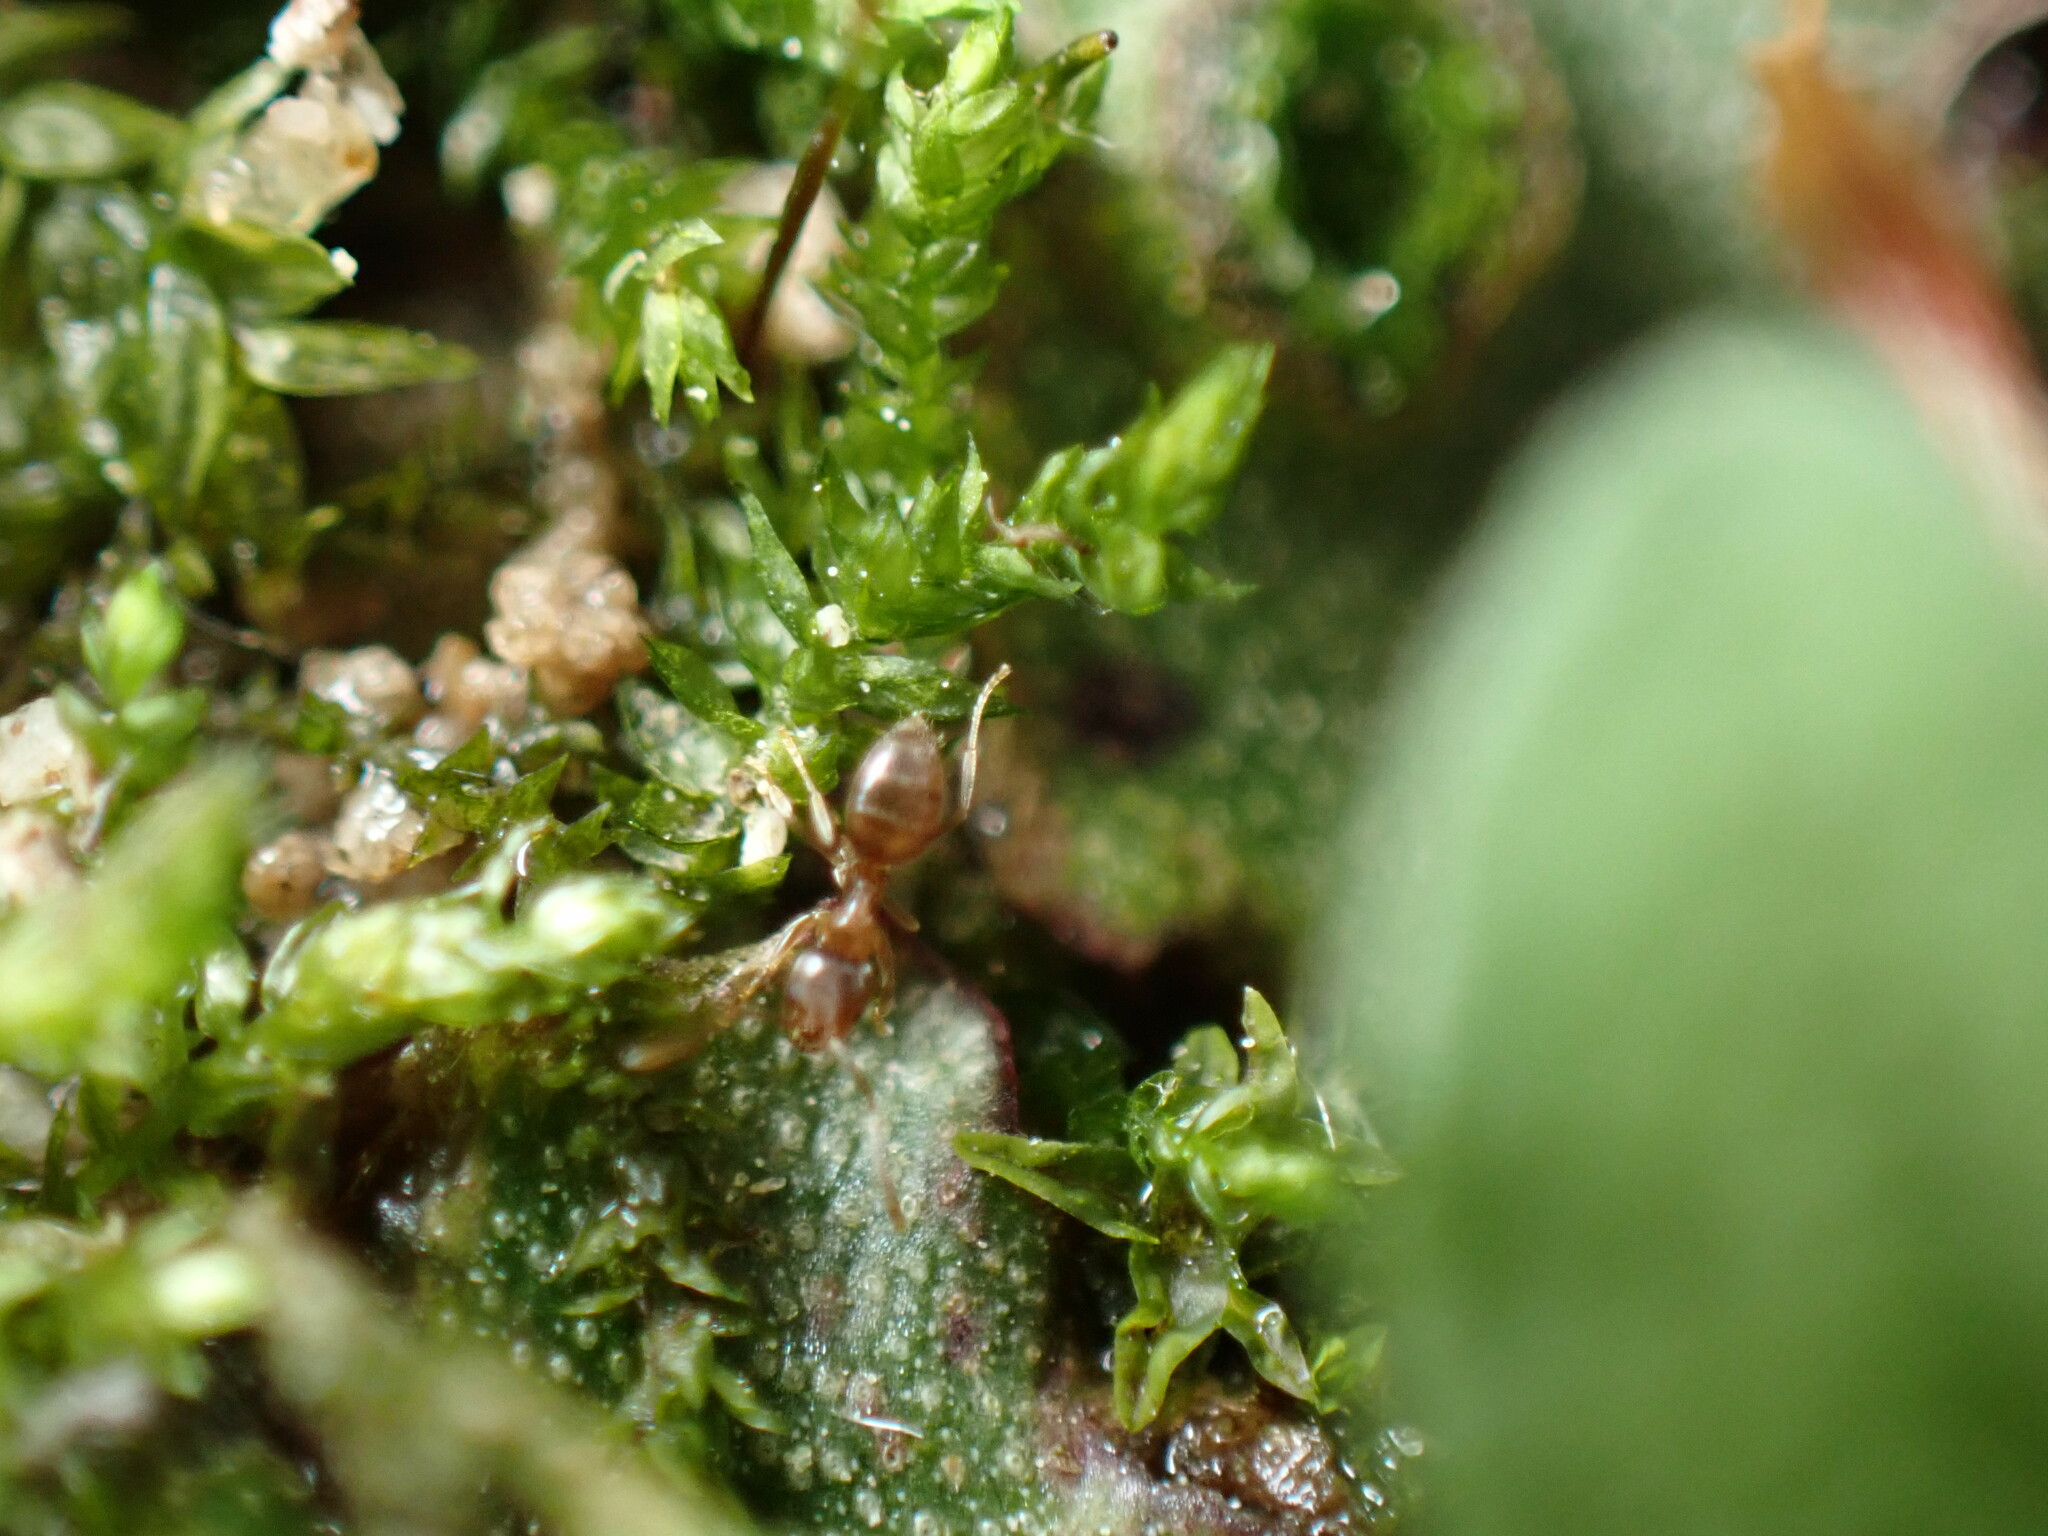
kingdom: Animalia
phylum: Arthropoda
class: Insecta
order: Hymenoptera
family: Formicidae
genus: Paraparatrechina
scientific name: Paraparatrechina
